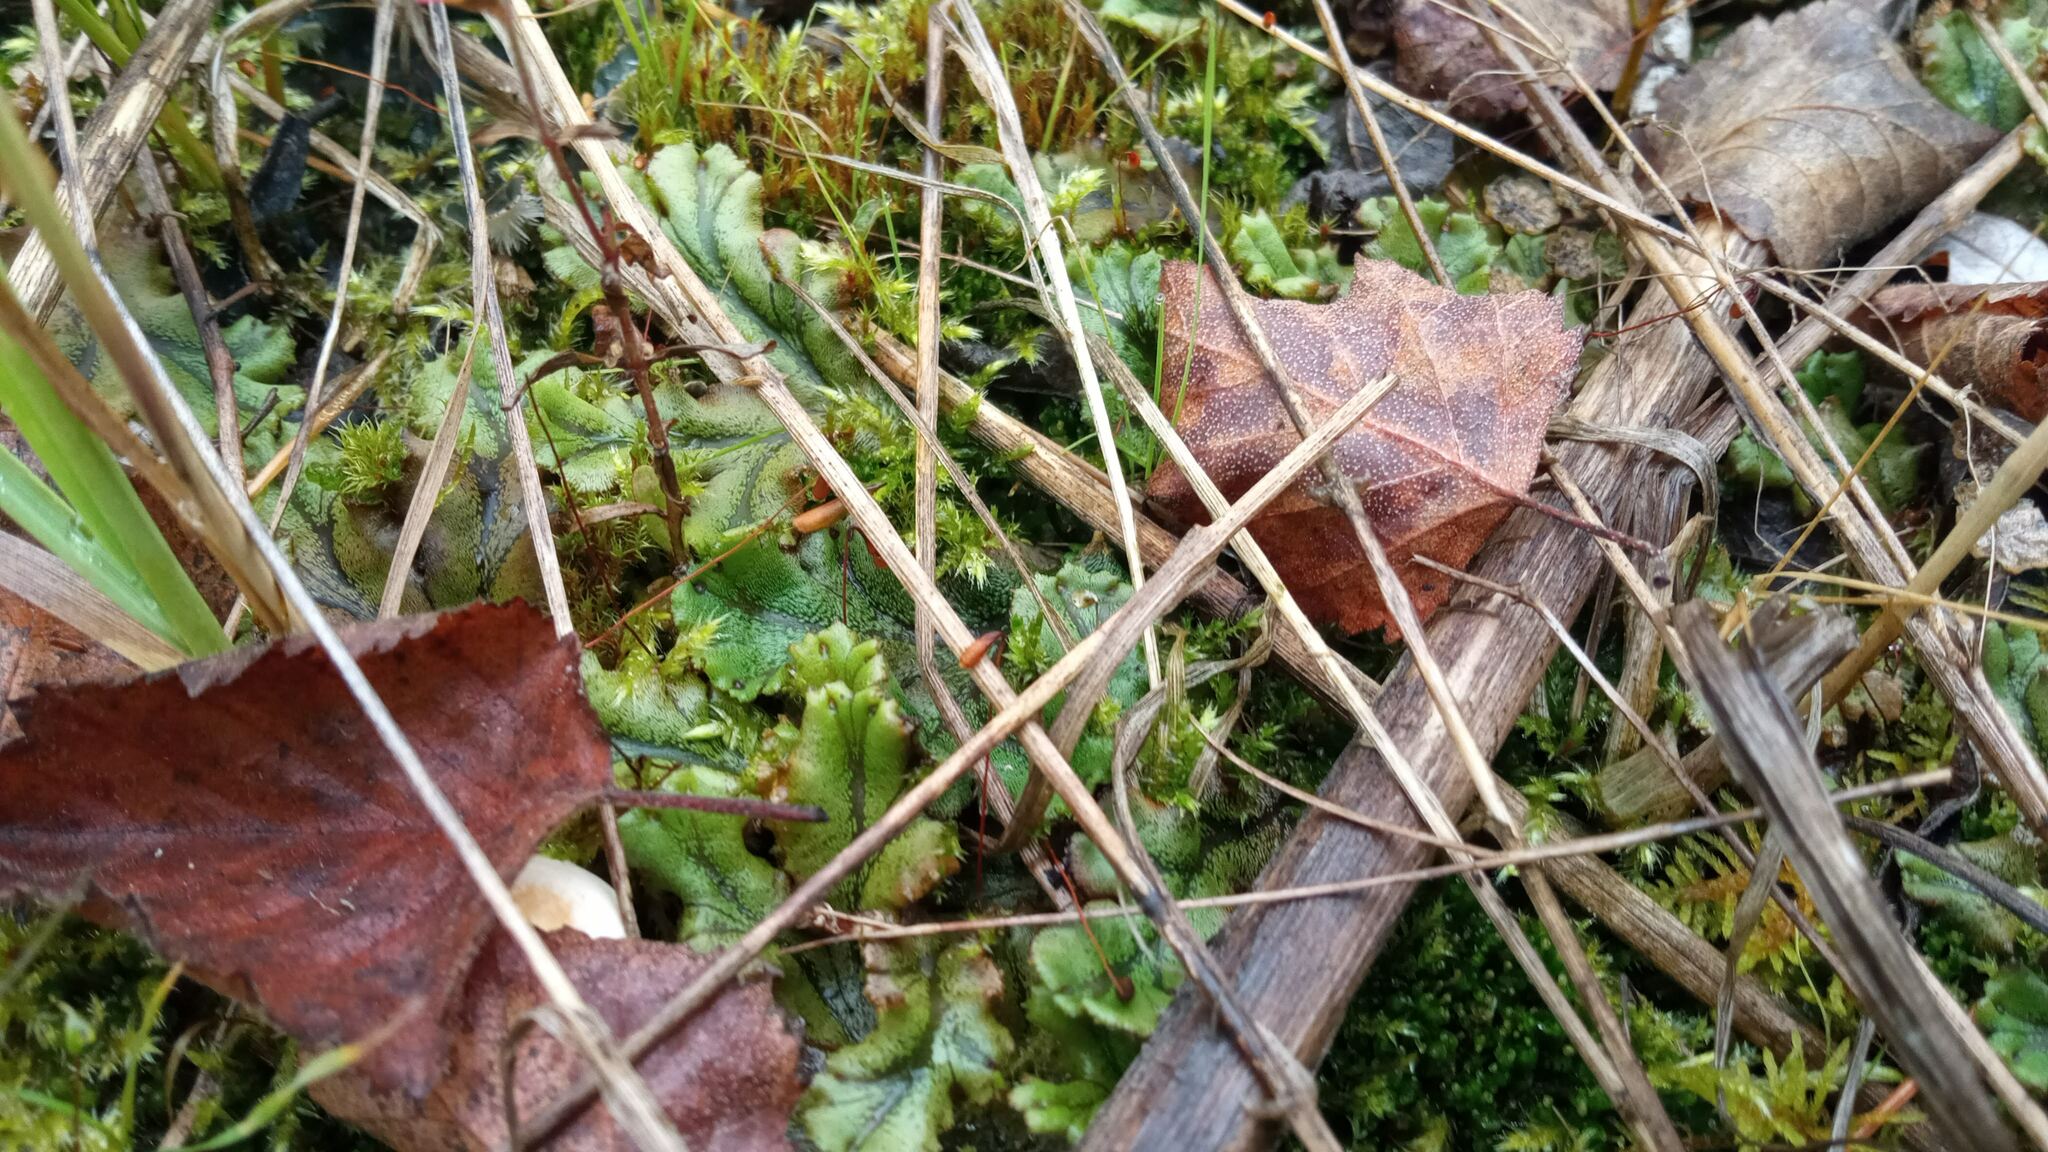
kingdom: Plantae
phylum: Marchantiophyta
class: Marchantiopsida
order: Marchantiales
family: Marchantiaceae
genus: Marchantia
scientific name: Marchantia polymorpha
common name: Common liverwort
